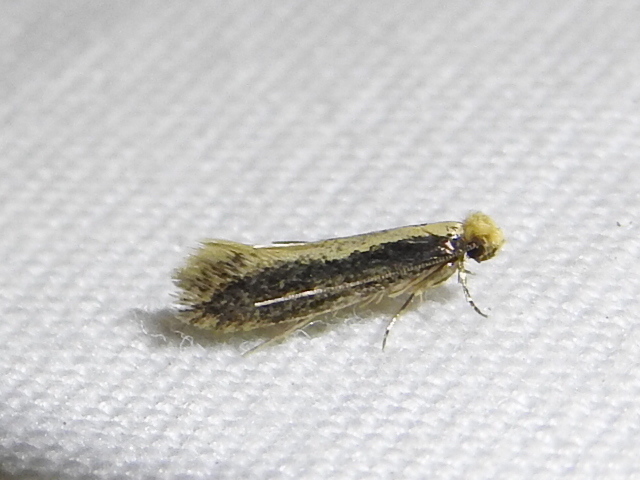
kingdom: Animalia
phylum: Arthropoda
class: Insecta
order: Lepidoptera
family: Tineidae
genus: Monopis
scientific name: Monopis crocicapitella
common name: Moth
